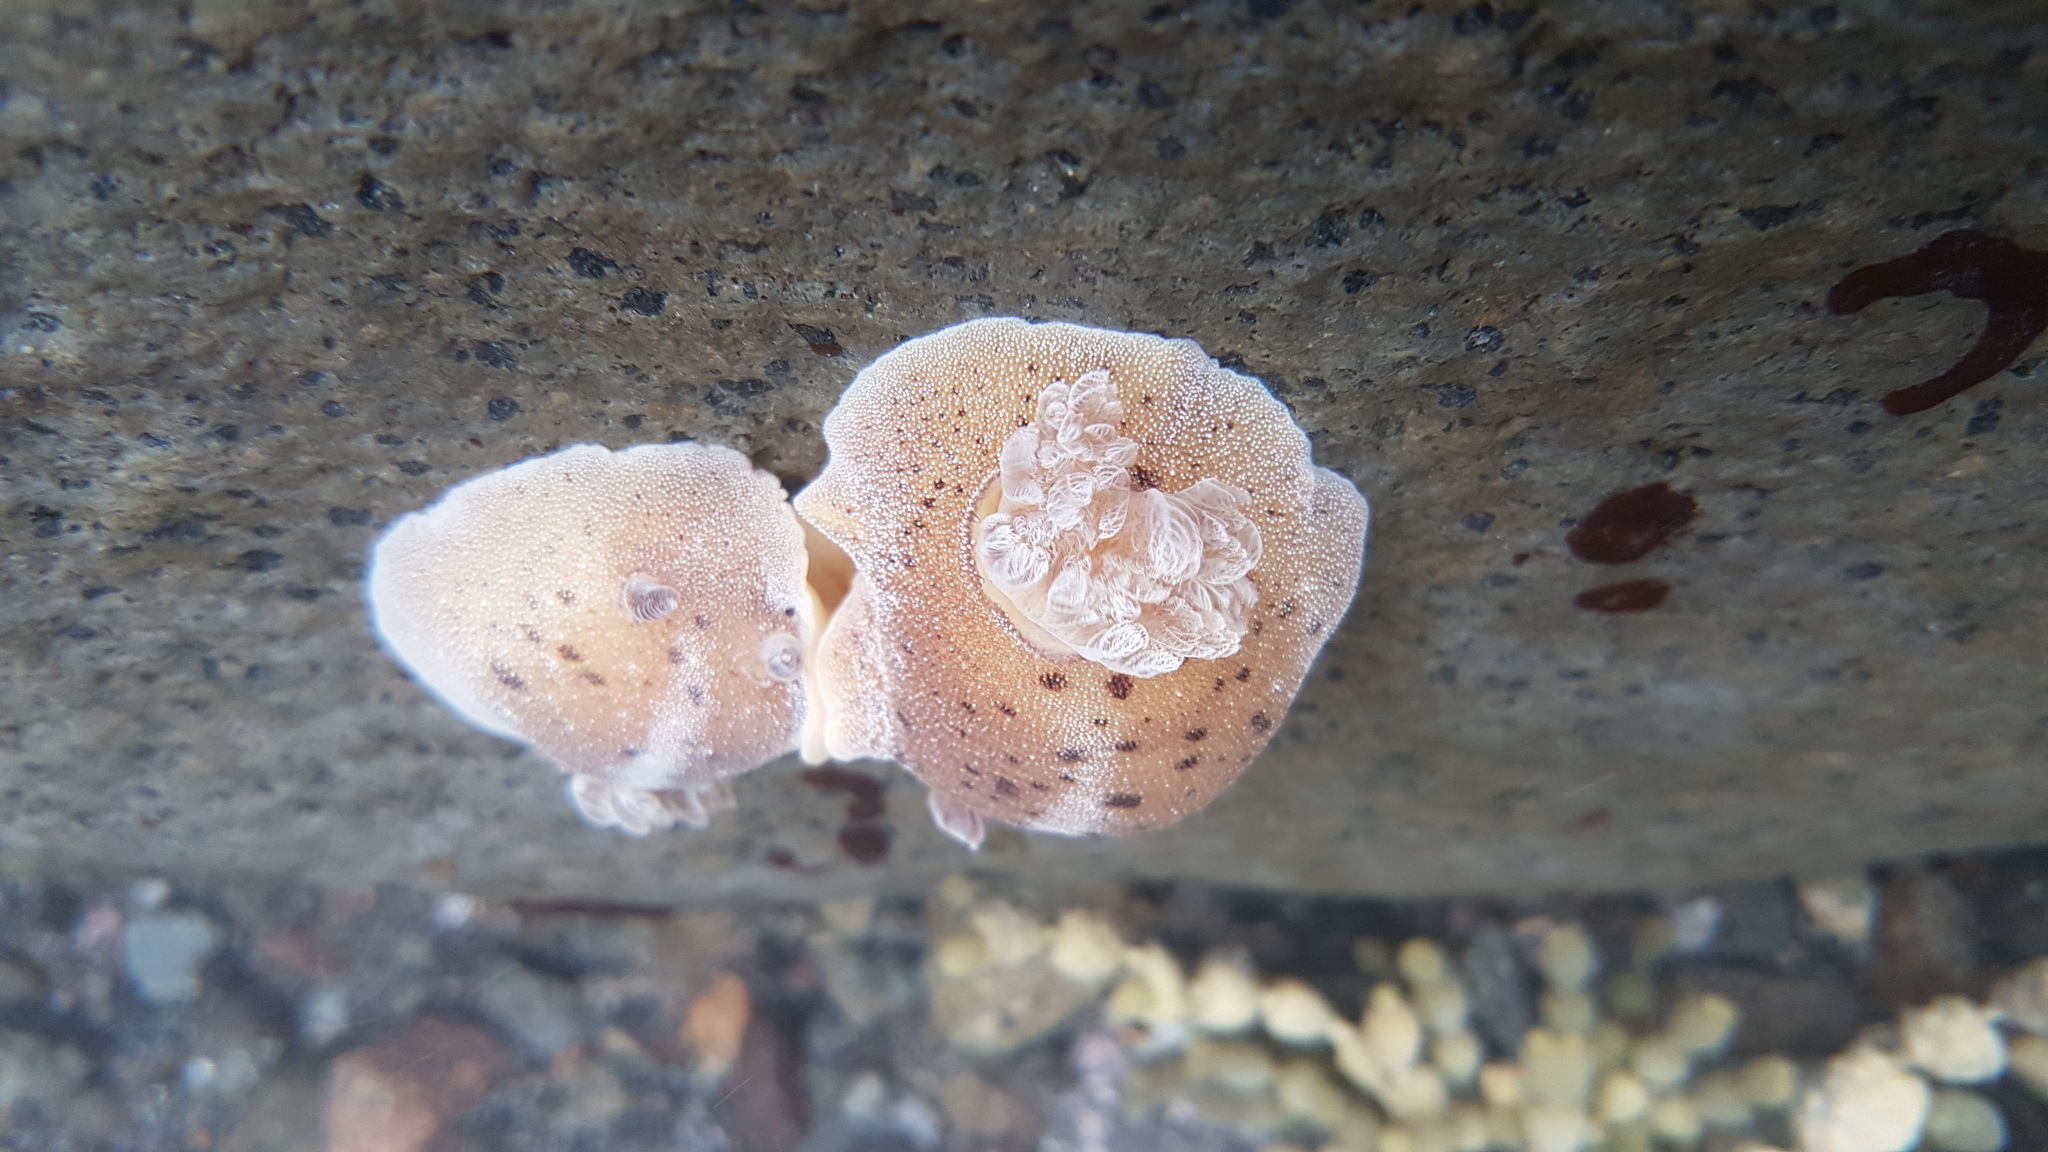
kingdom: Animalia
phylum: Mollusca
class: Gastropoda
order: Nudibranchia
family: Discodorididae
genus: Alloiodoris
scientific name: Alloiodoris lanuginata
